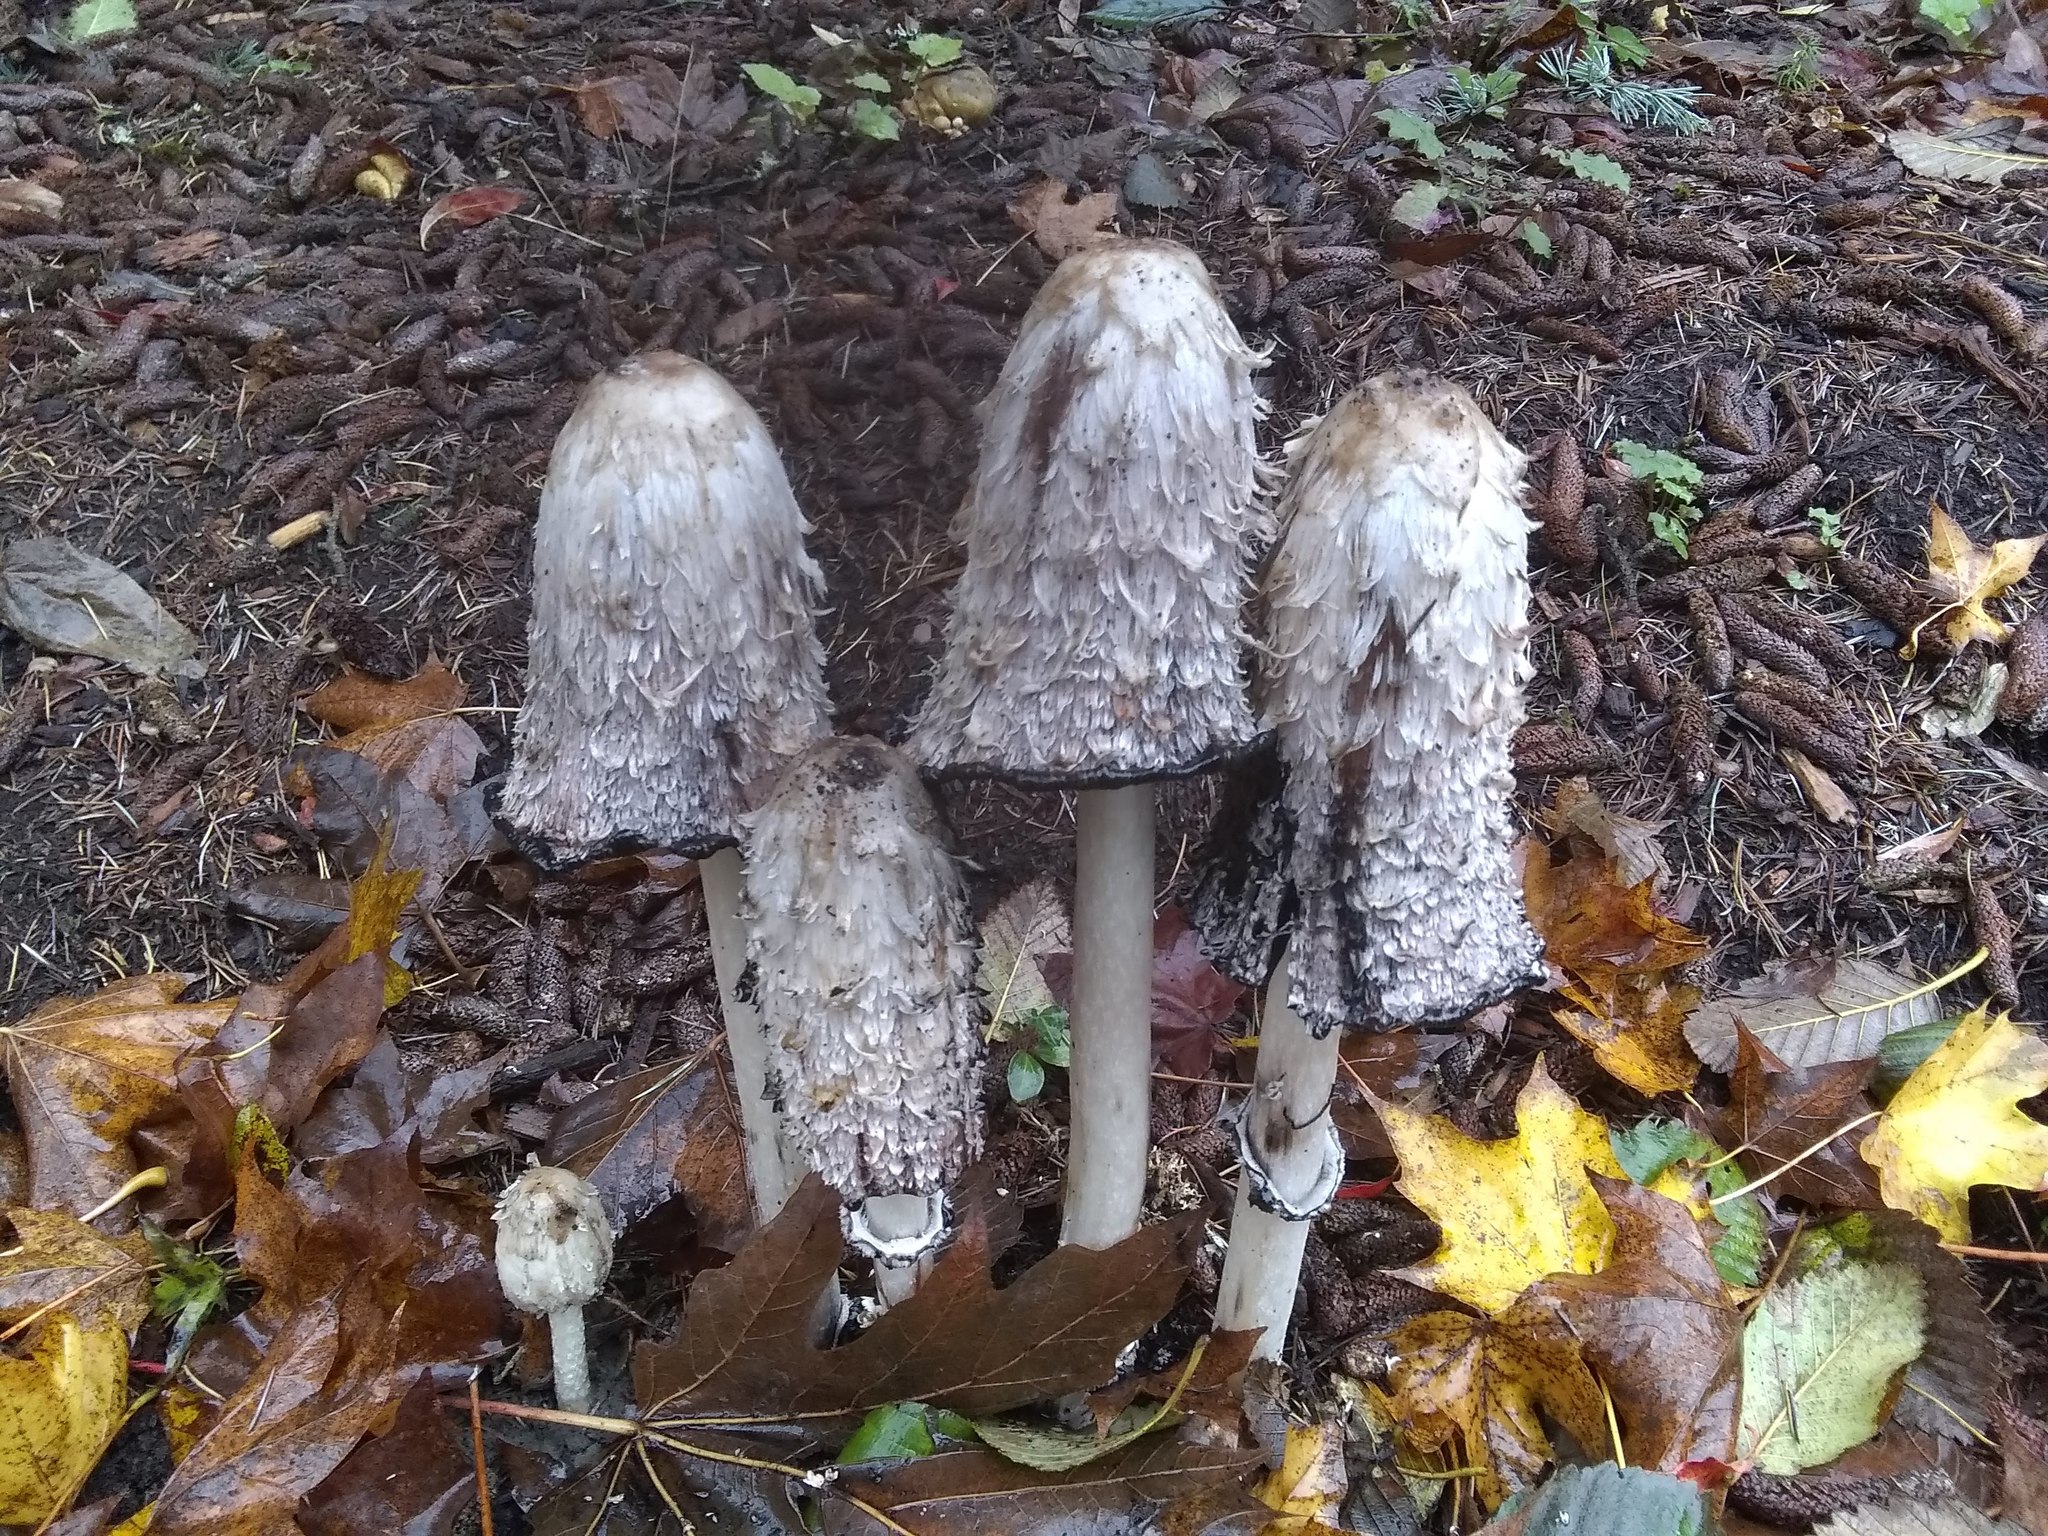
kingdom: Fungi
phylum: Basidiomycota
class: Agaricomycetes
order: Agaricales
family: Agaricaceae
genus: Coprinus
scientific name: Coprinus comatus
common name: Lawyer's wig
